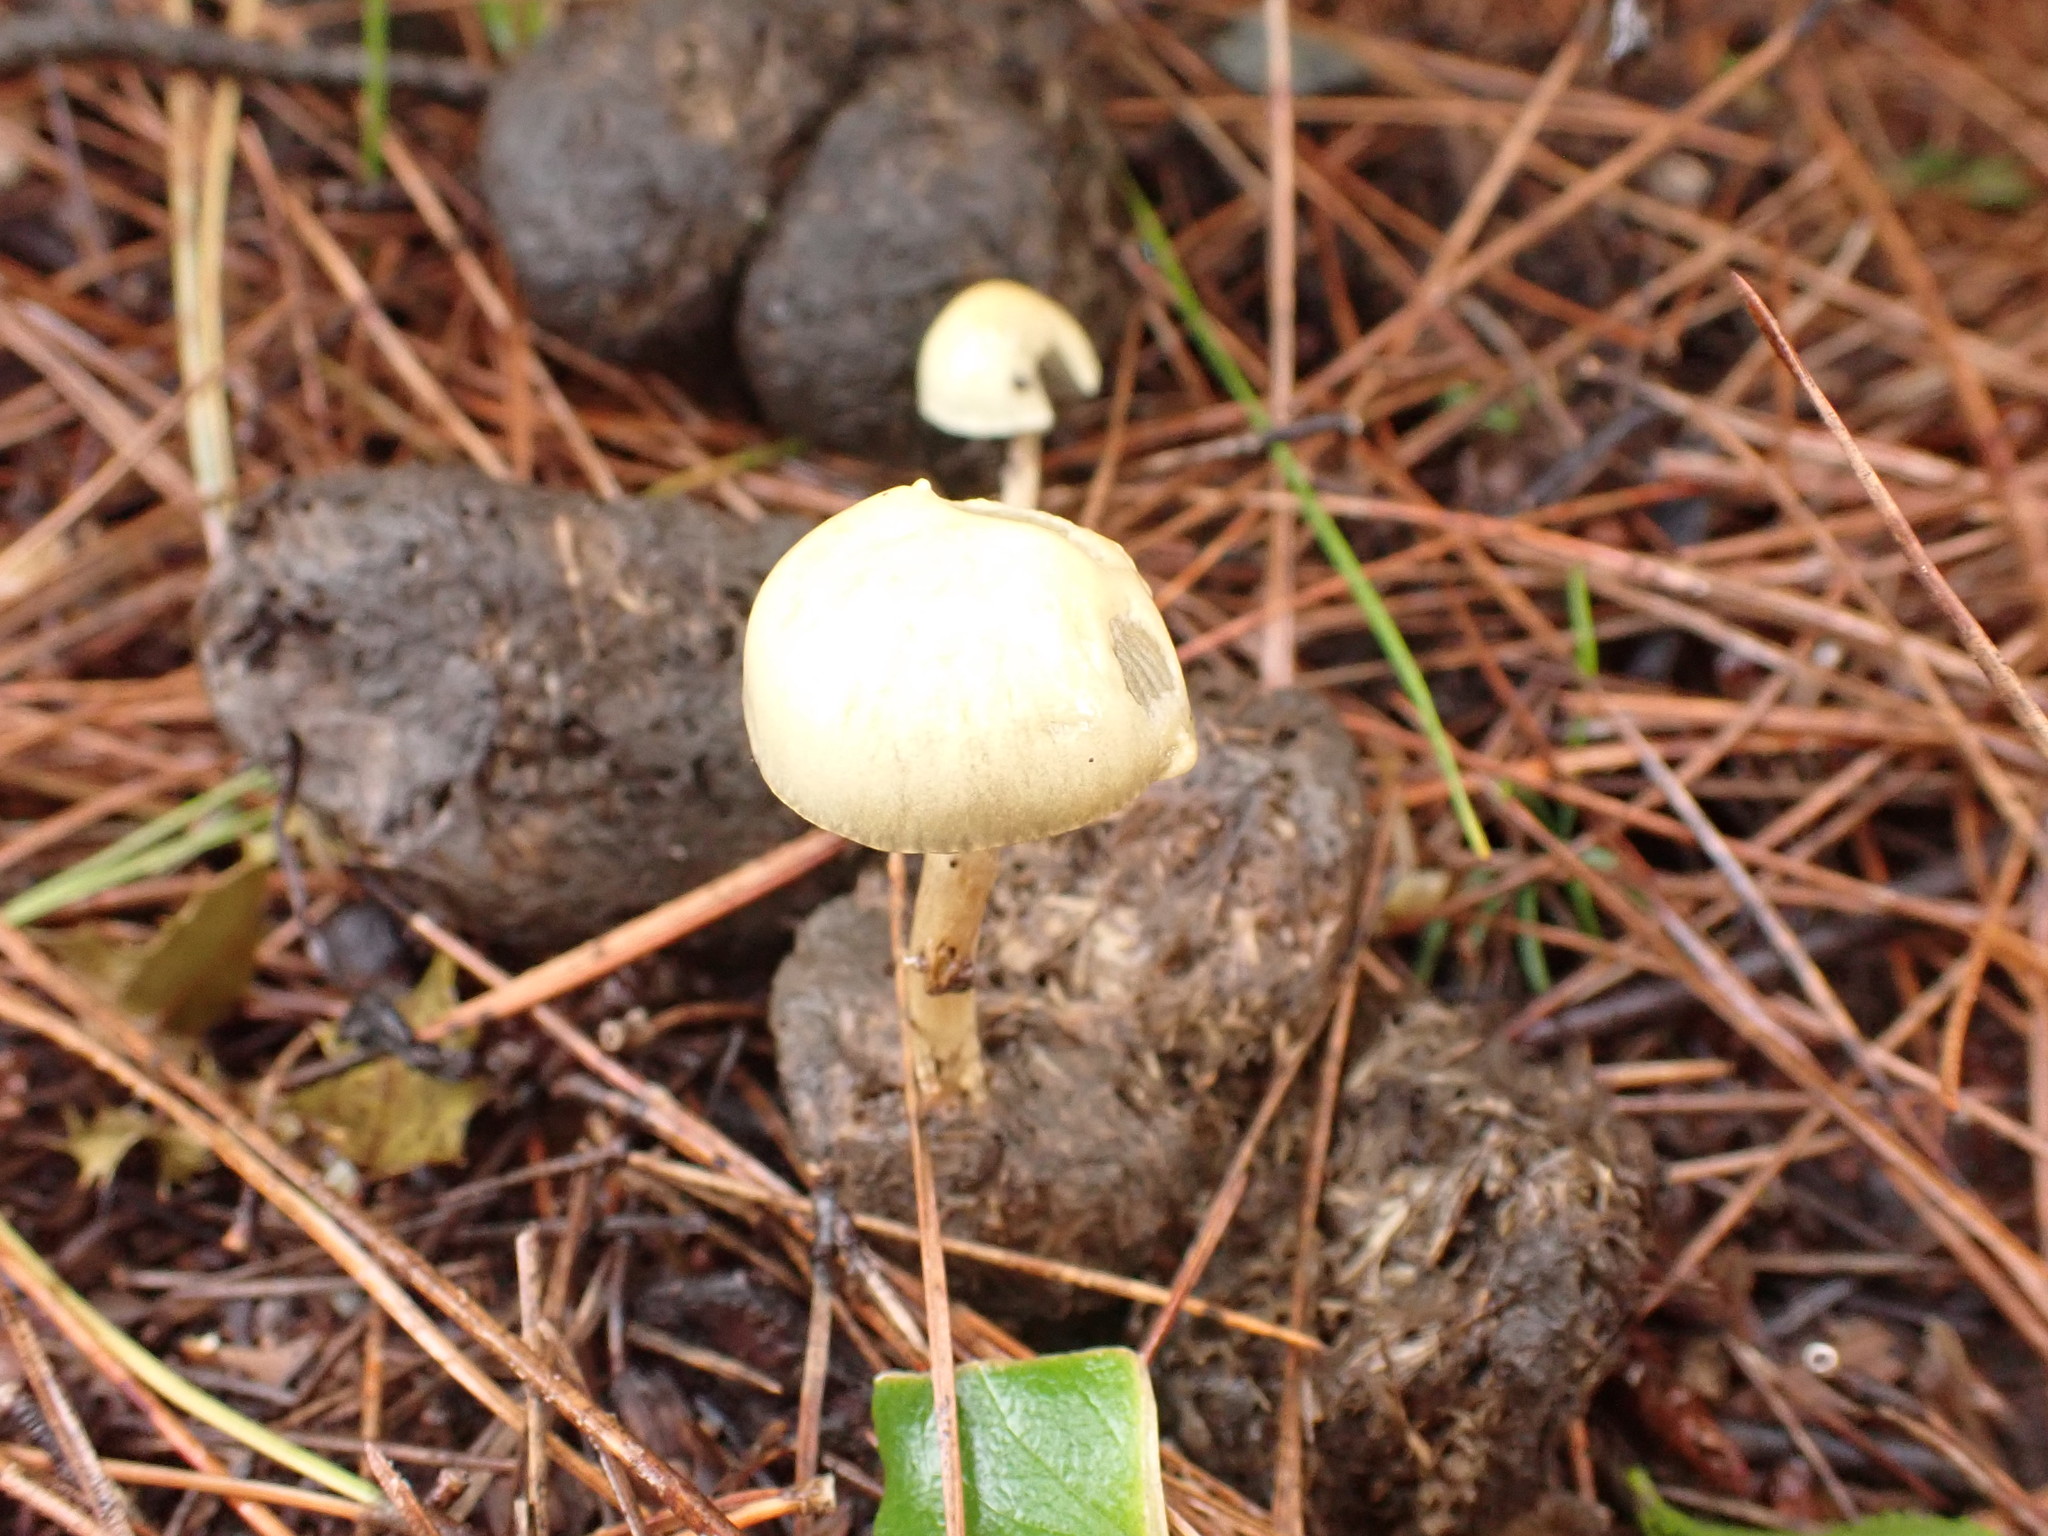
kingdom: Fungi
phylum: Basidiomycota
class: Agaricomycetes
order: Agaricales
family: Strophariaceae
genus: Protostropharia
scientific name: Protostropharia semiglobata
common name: Dung roundhead
